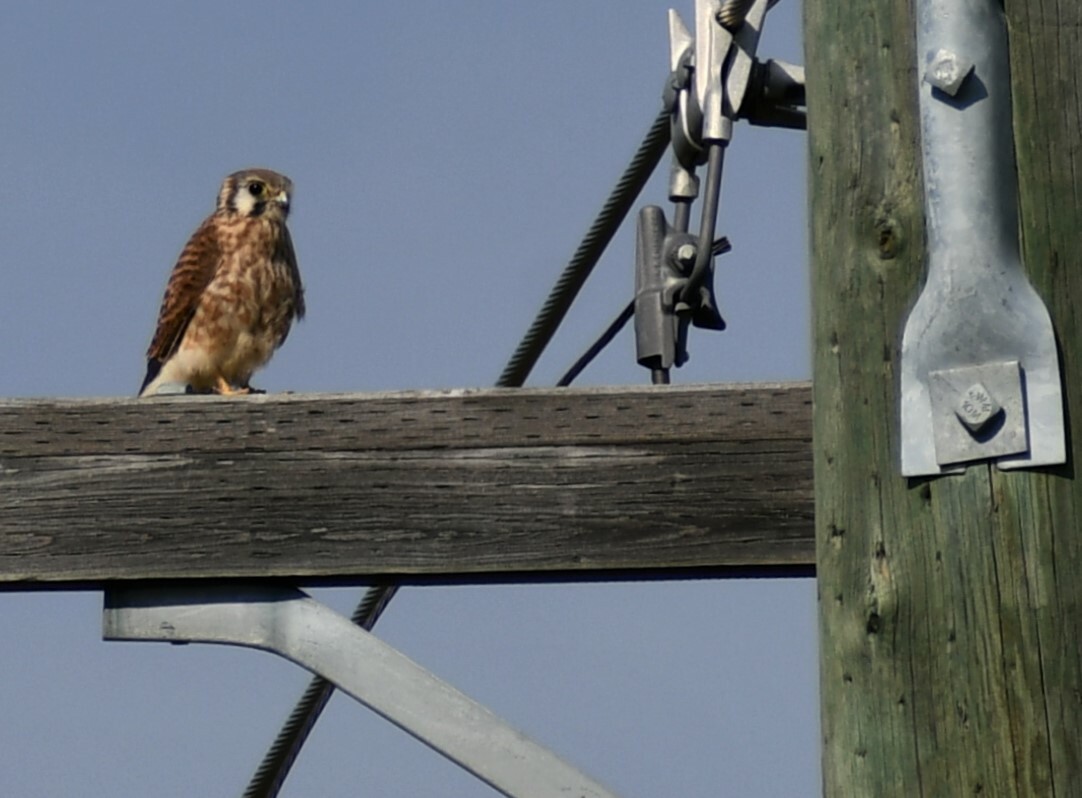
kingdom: Animalia
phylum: Chordata
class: Aves
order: Falconiformes
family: Falconidae
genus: Falco
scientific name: Falco sparverius
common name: American kestrel
